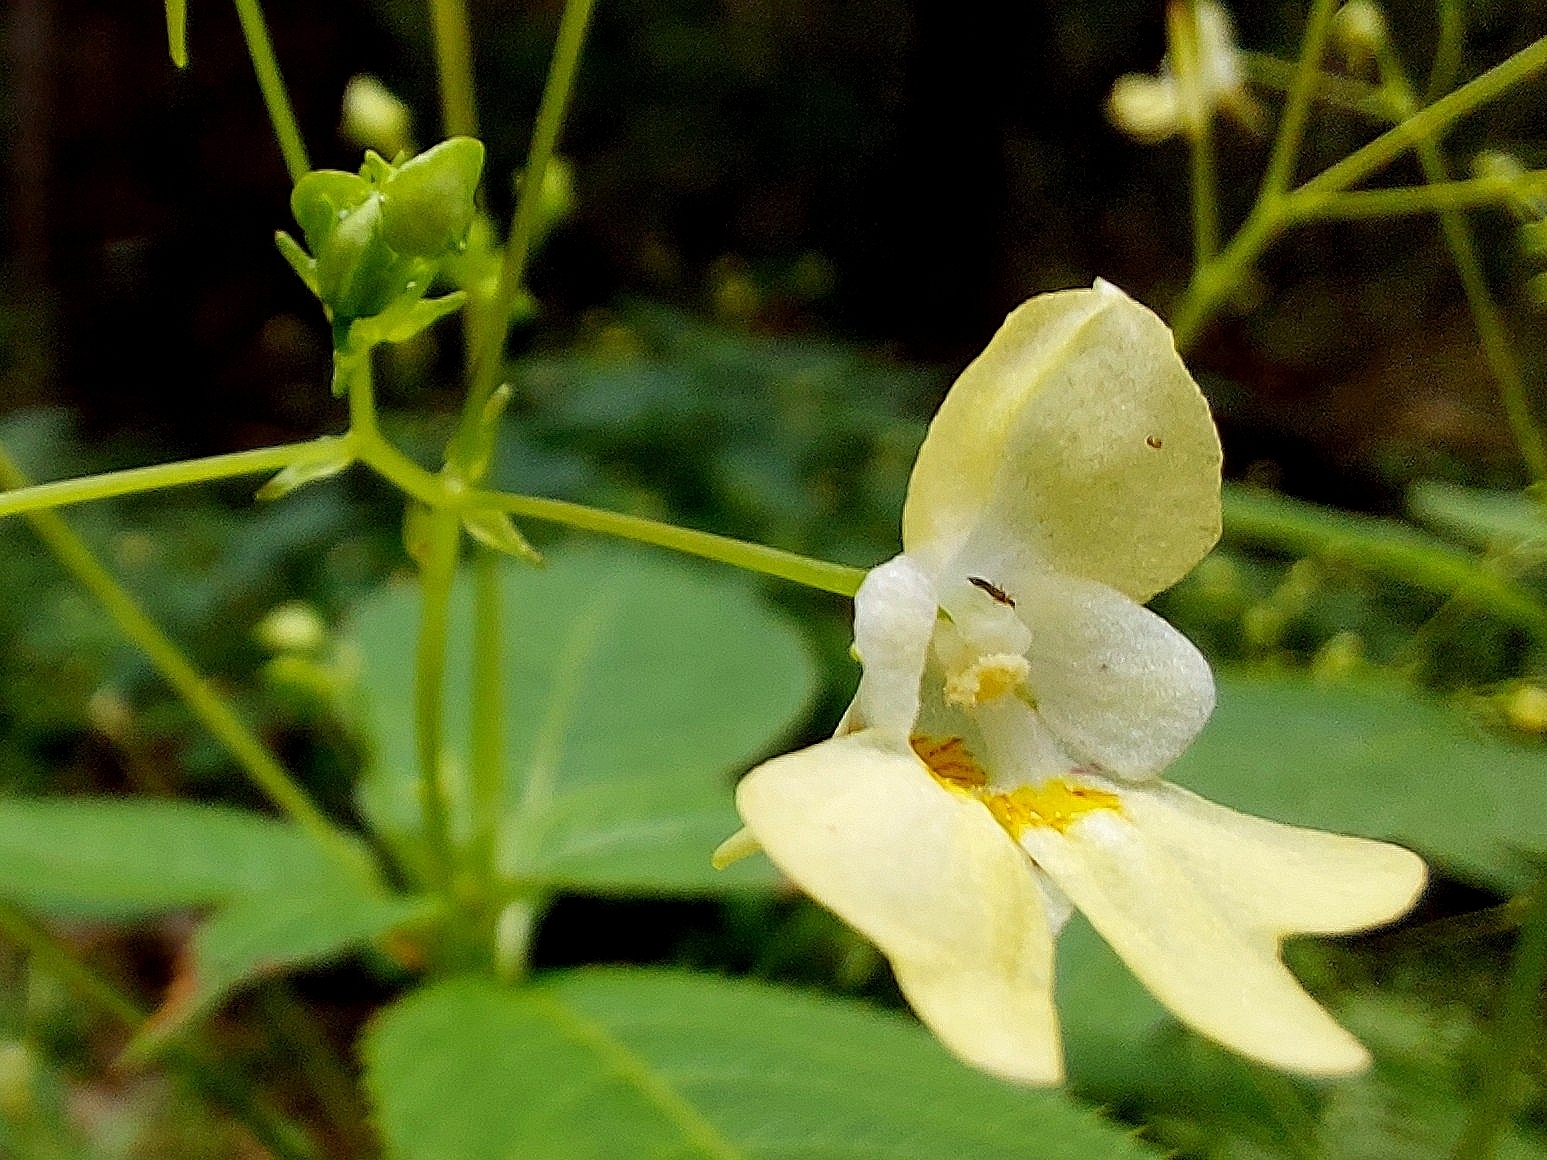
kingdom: Plantae
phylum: Tracheophyta
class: Magnoliopsida
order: Ericales
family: Balsaminaceae
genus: Impatiens
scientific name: Impatiens parviflora
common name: Small balsam
